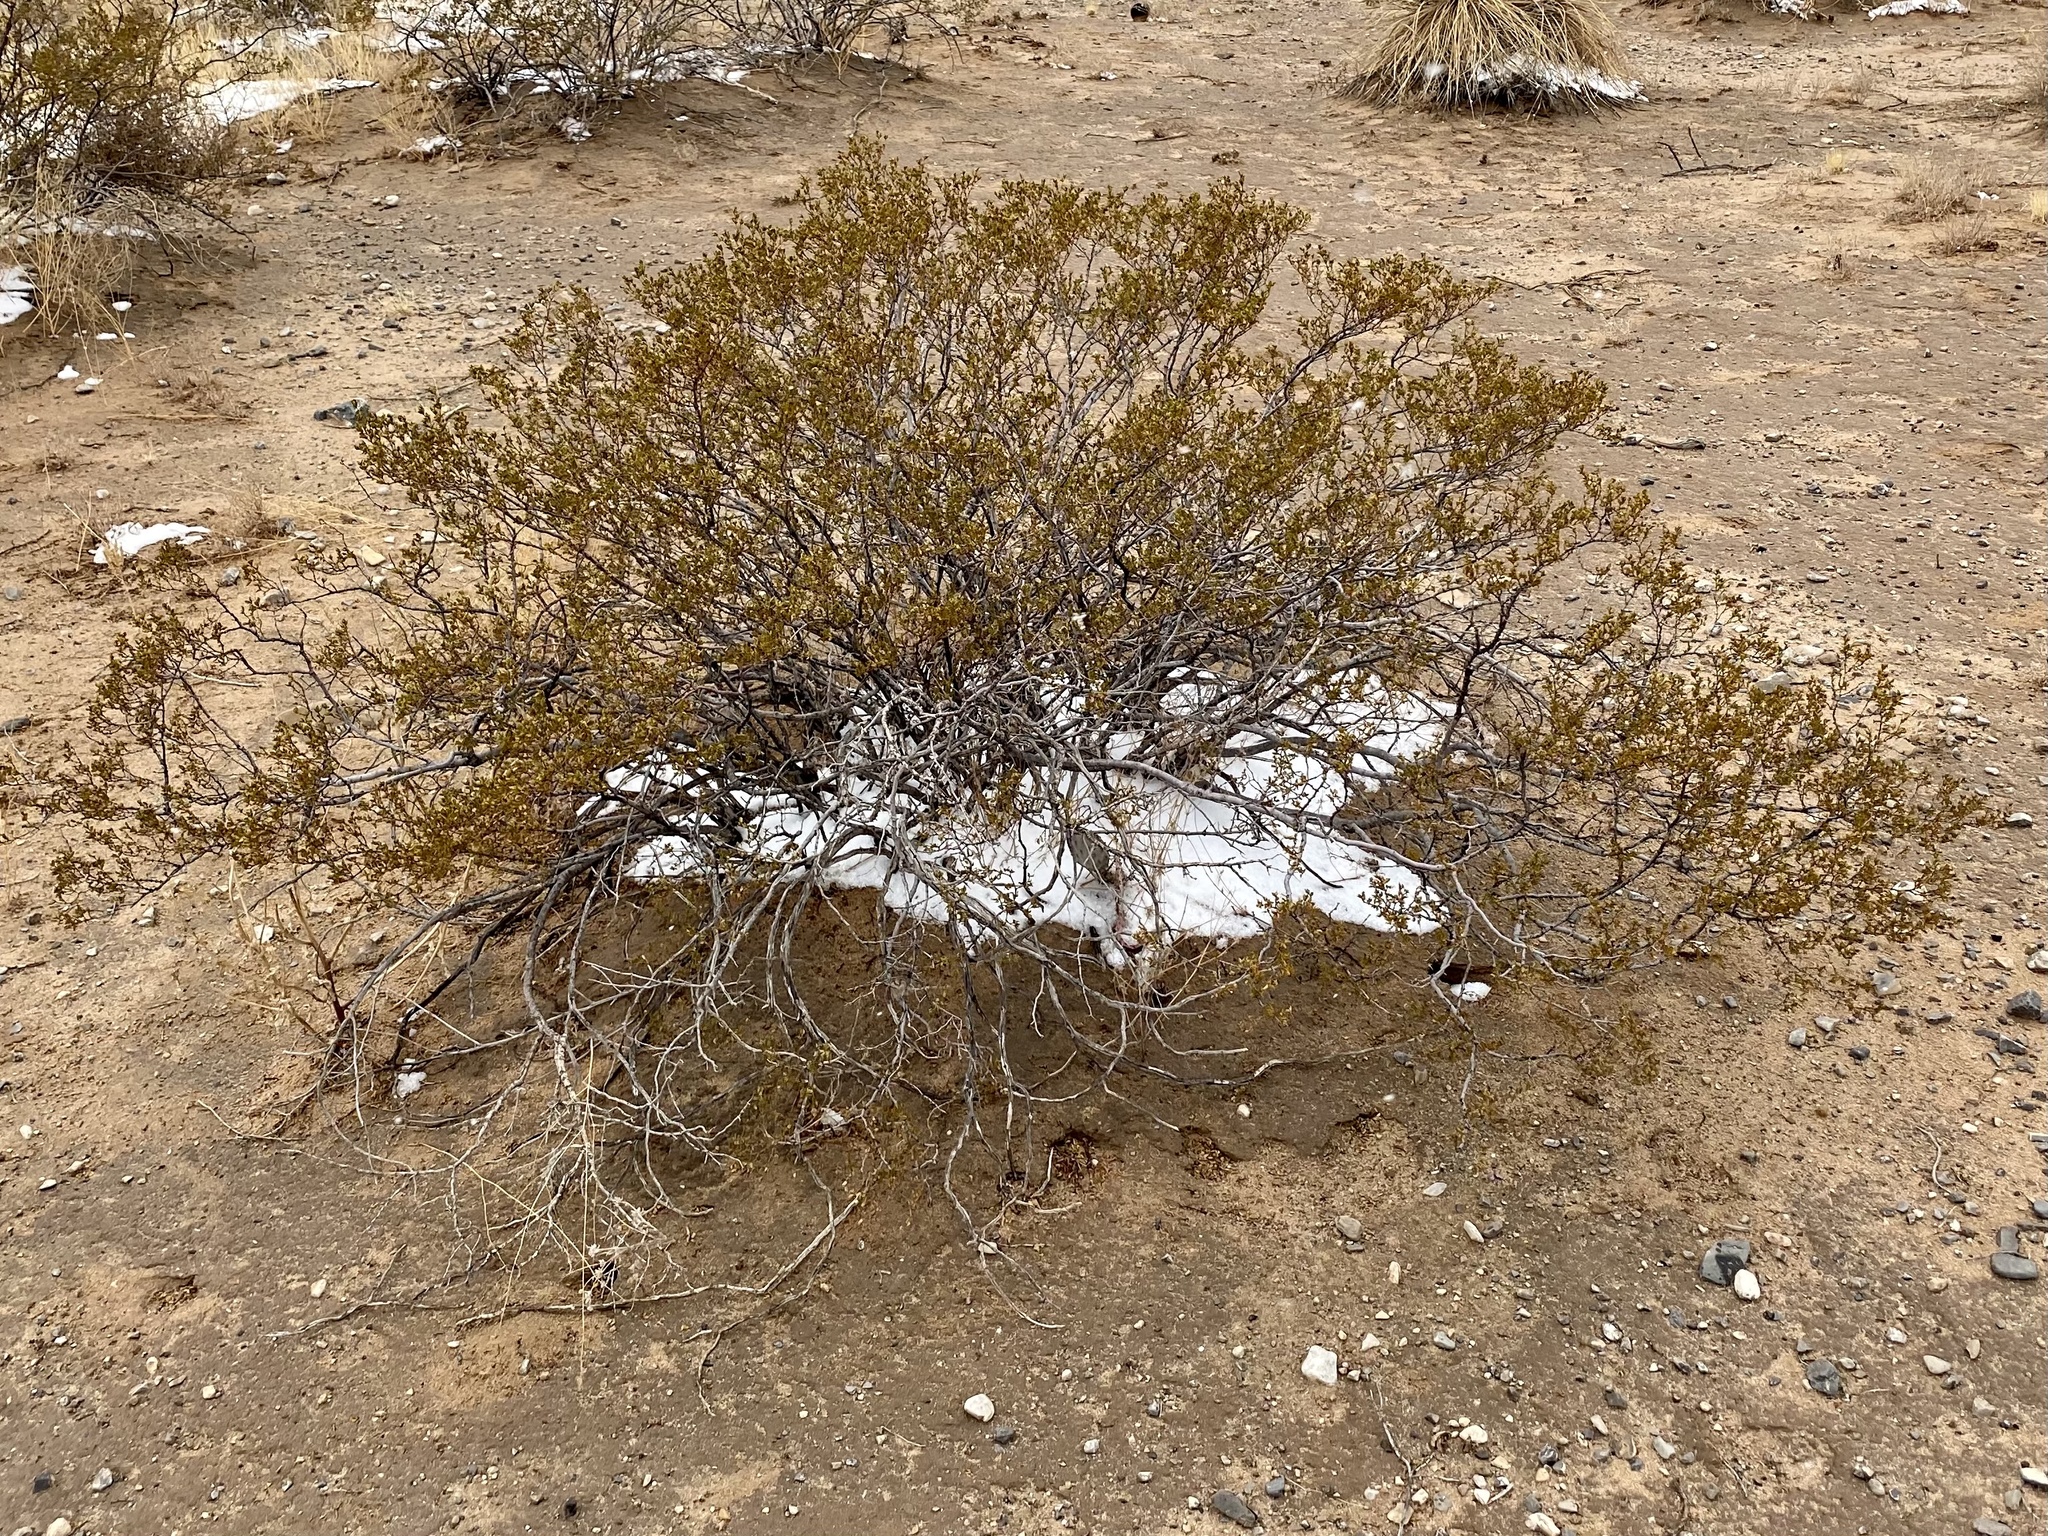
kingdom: Plantae
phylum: Tracheophyta
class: Magnoliopsida
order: Zygophyllales
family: Zygophyllaceae
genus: Larrea
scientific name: Larrea tridentata
